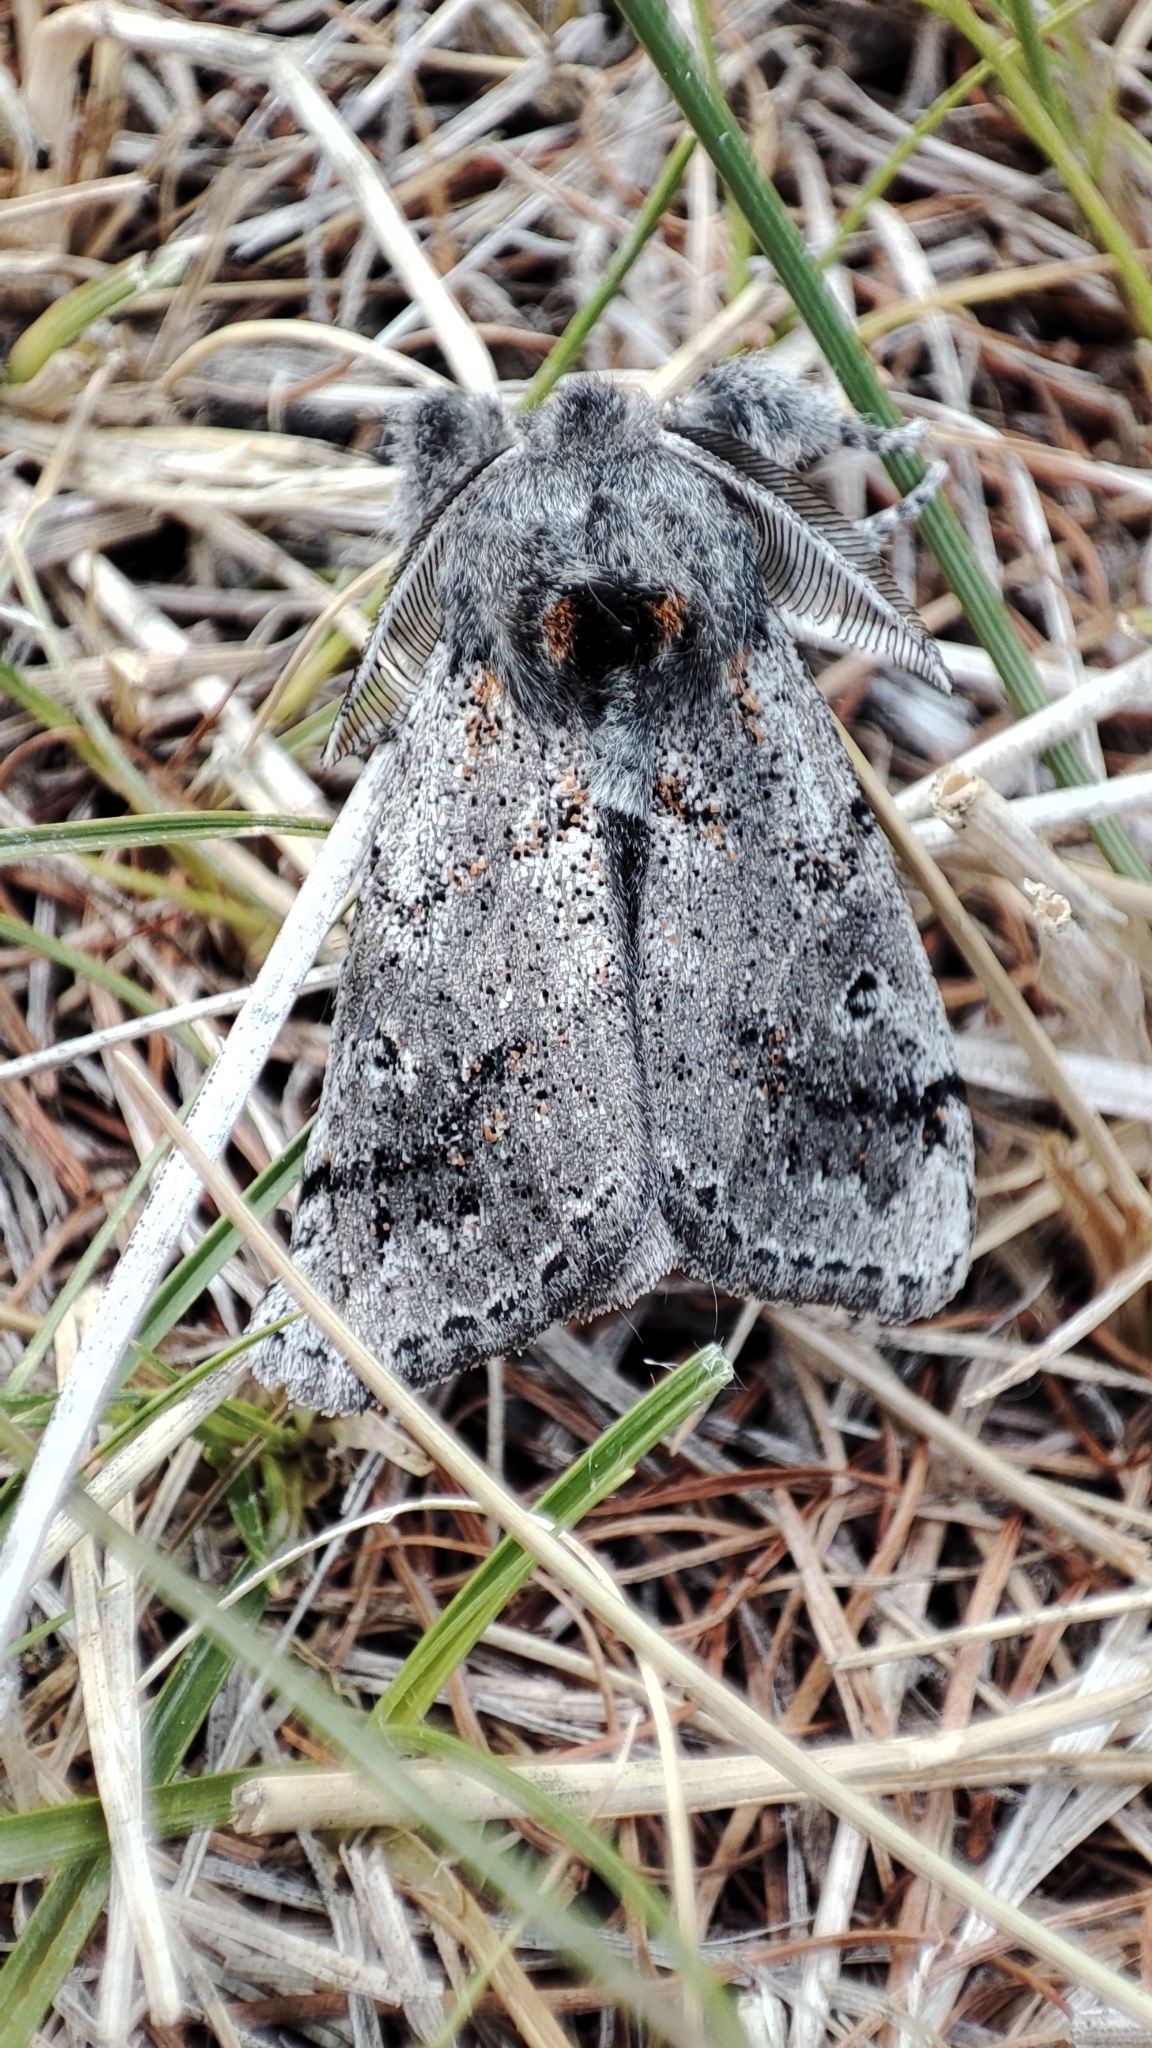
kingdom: Animalia
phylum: Arthropoda
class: Insecta
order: Lepidoptera
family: Erebidae
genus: Calliteara
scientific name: Calliteara Dicallomera fascelina
